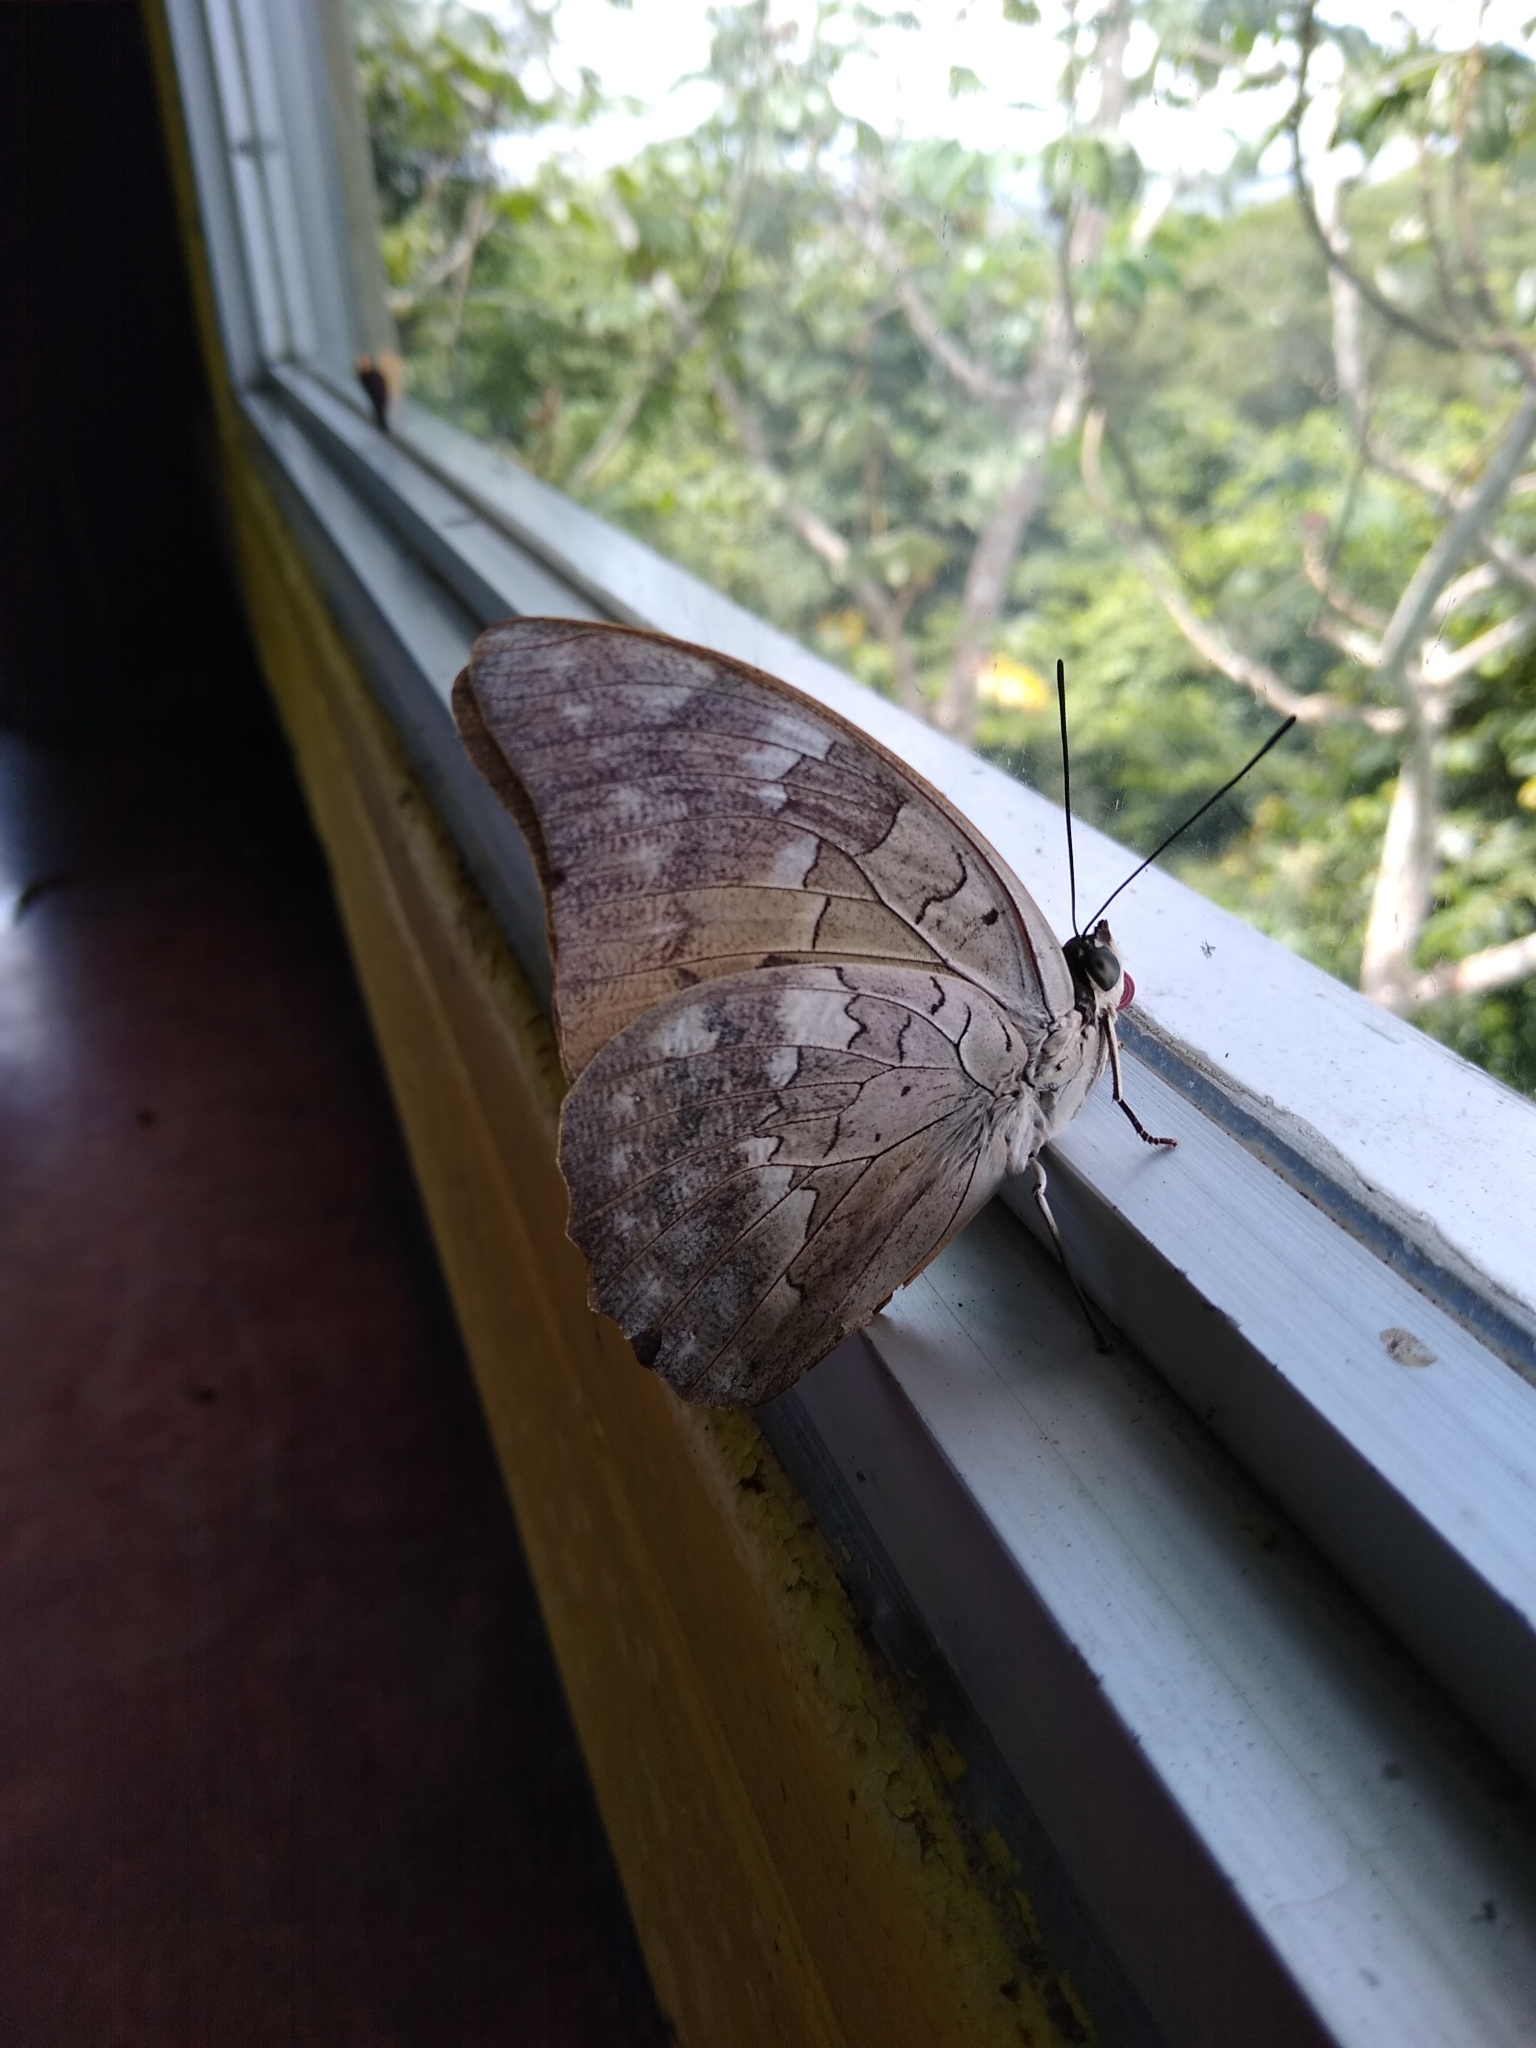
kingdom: Animalia
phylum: Arthropoda
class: Insecta
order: Lepidoptera
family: Nymphalidae
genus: Prepona
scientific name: Prepona demophon
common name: One-spotted prepona
